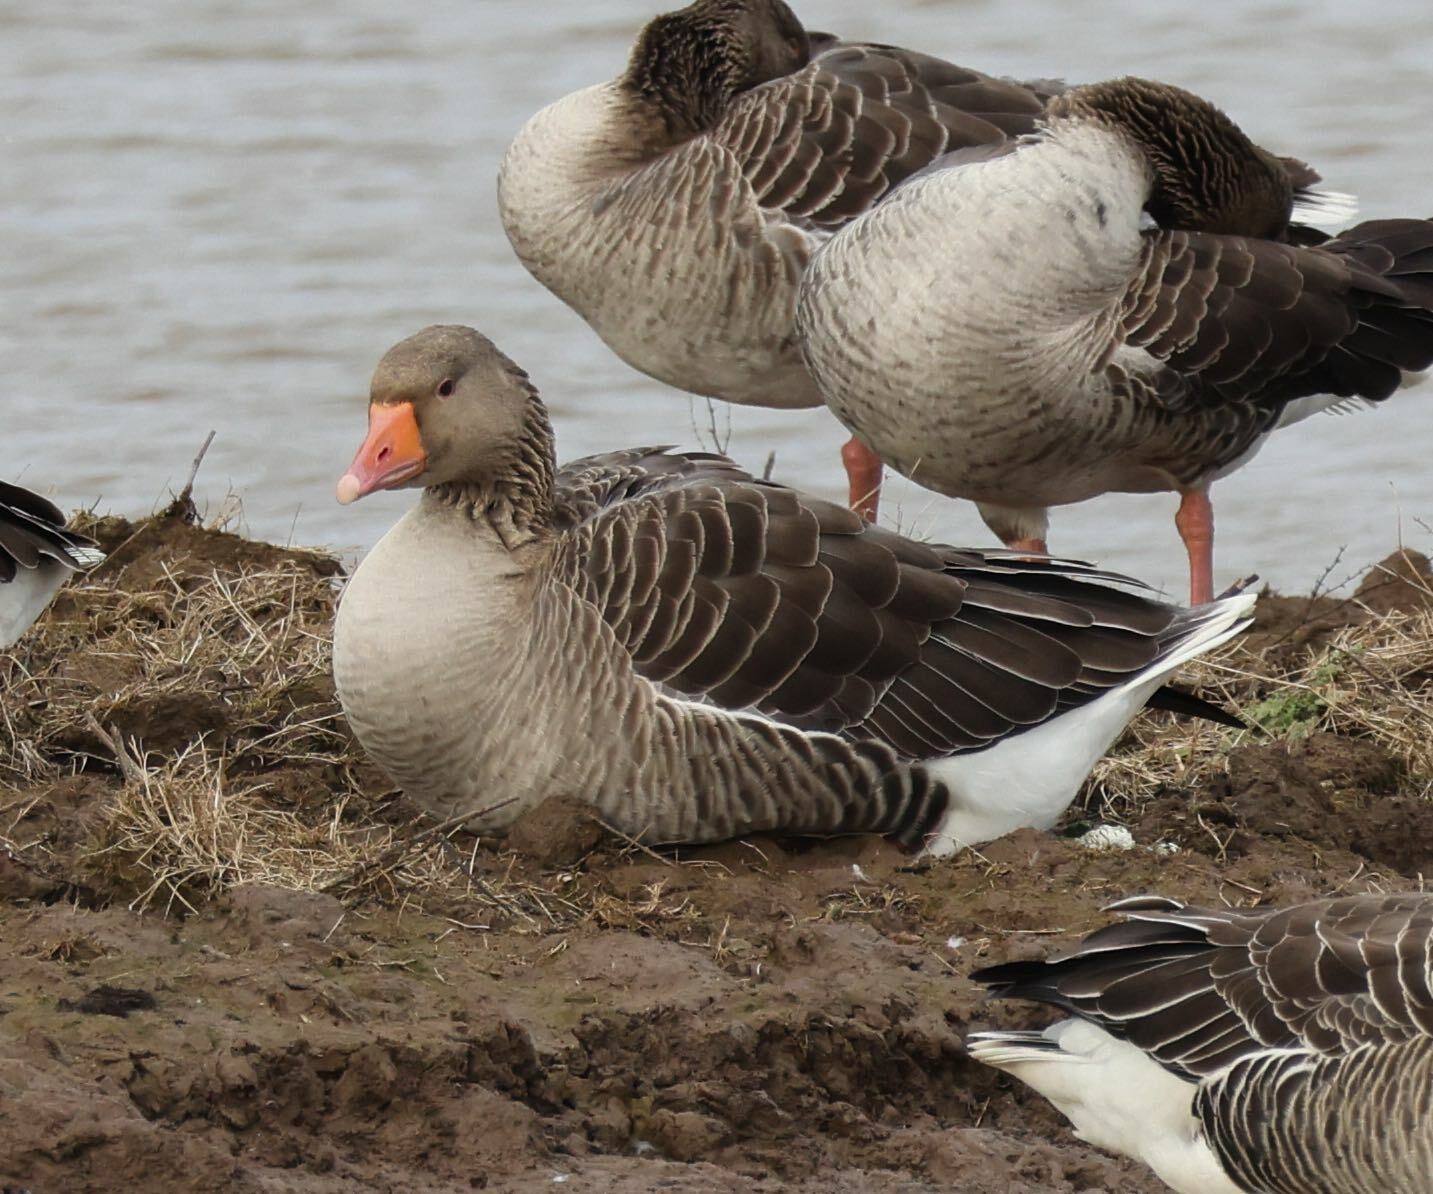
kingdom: Animalia
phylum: Chordata
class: Aves
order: Anseriformes
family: Anatidae
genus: Anser
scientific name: Anser anser
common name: Greylag goose
